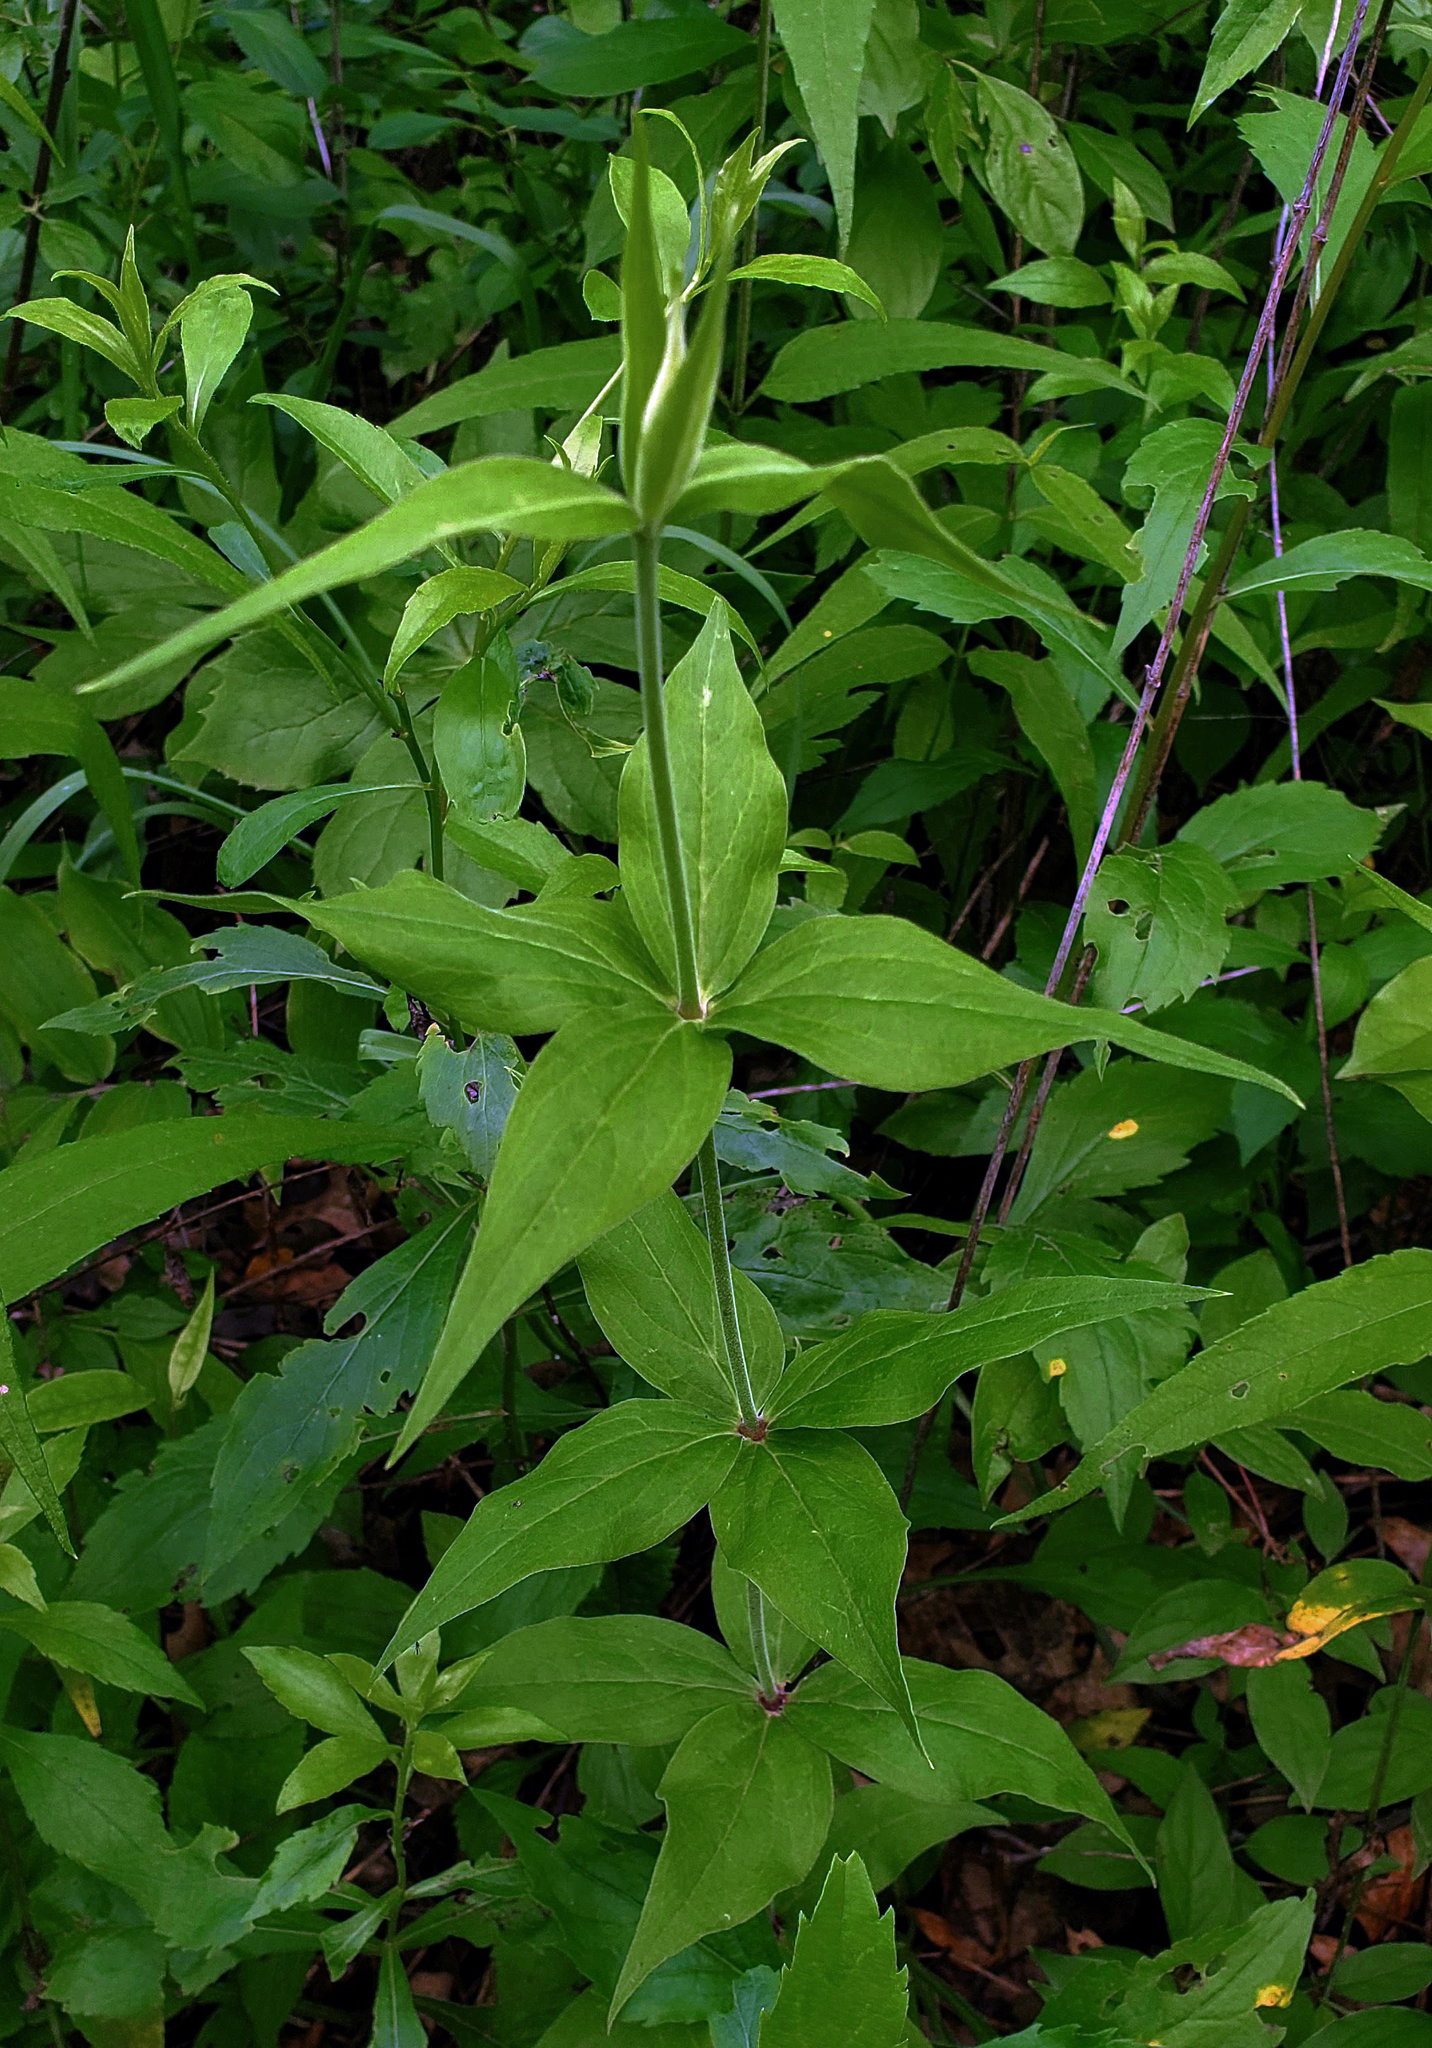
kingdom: Plantae
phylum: Tracheophyta
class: Magnoliopsida
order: Caryophyllales
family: Caryophyllaceae
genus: Silene
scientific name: Silene stellata
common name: Starry campion
